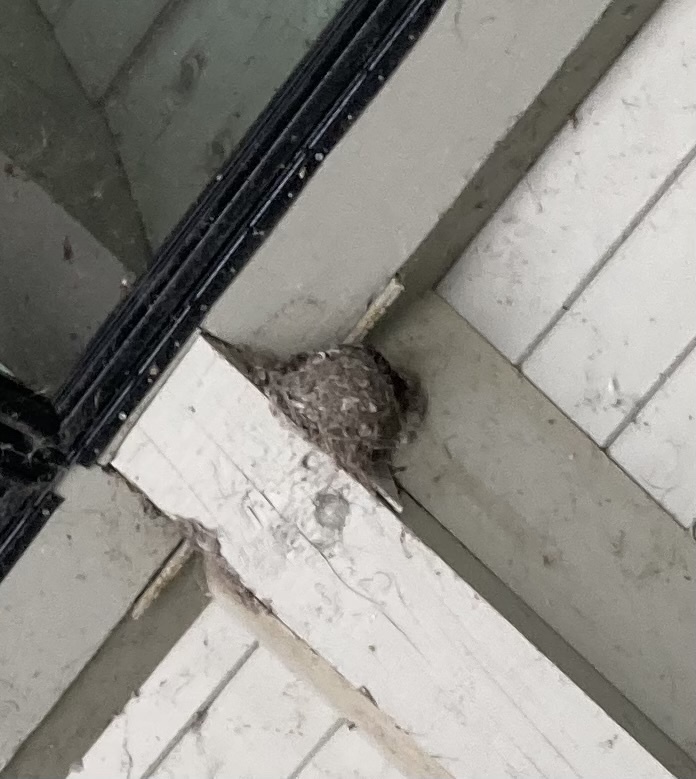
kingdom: Animalia
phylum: Chordata
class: Aves
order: Passeriformes
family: Hirundinidae
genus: Hirundo
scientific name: Hirundo rustica
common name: Barn swallow
